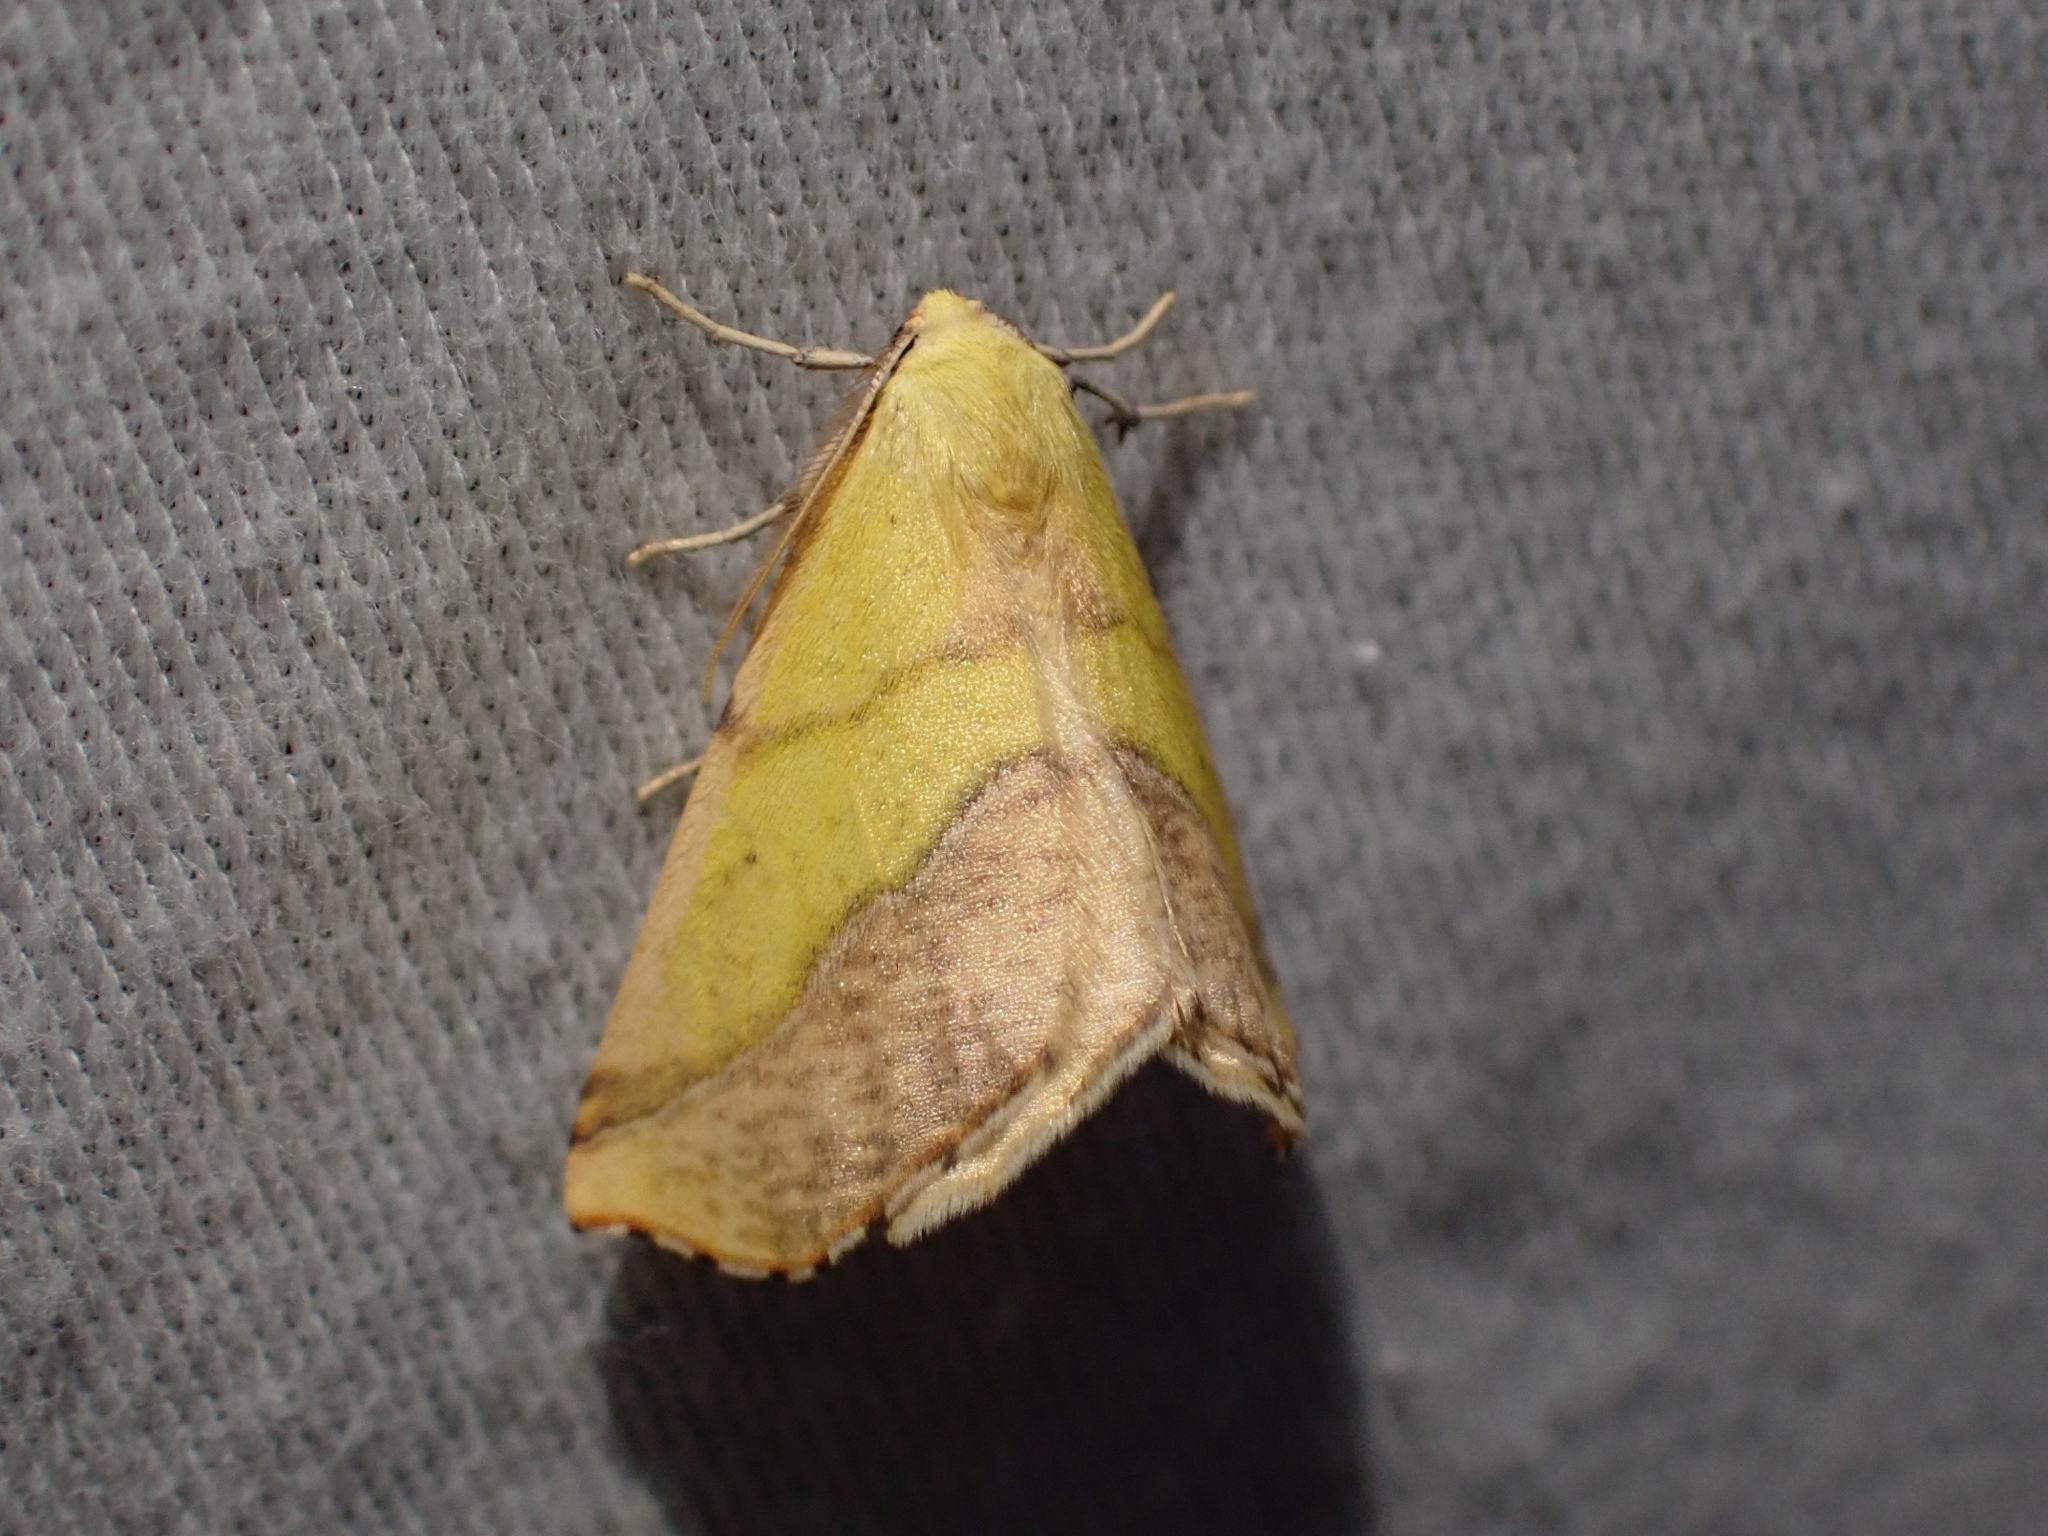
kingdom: Animalia
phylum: Arthropoda
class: Insecta
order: Lepidoptera
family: Geometridae
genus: Sicya
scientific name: Sicya macularia
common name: Sharp-lined yellow
